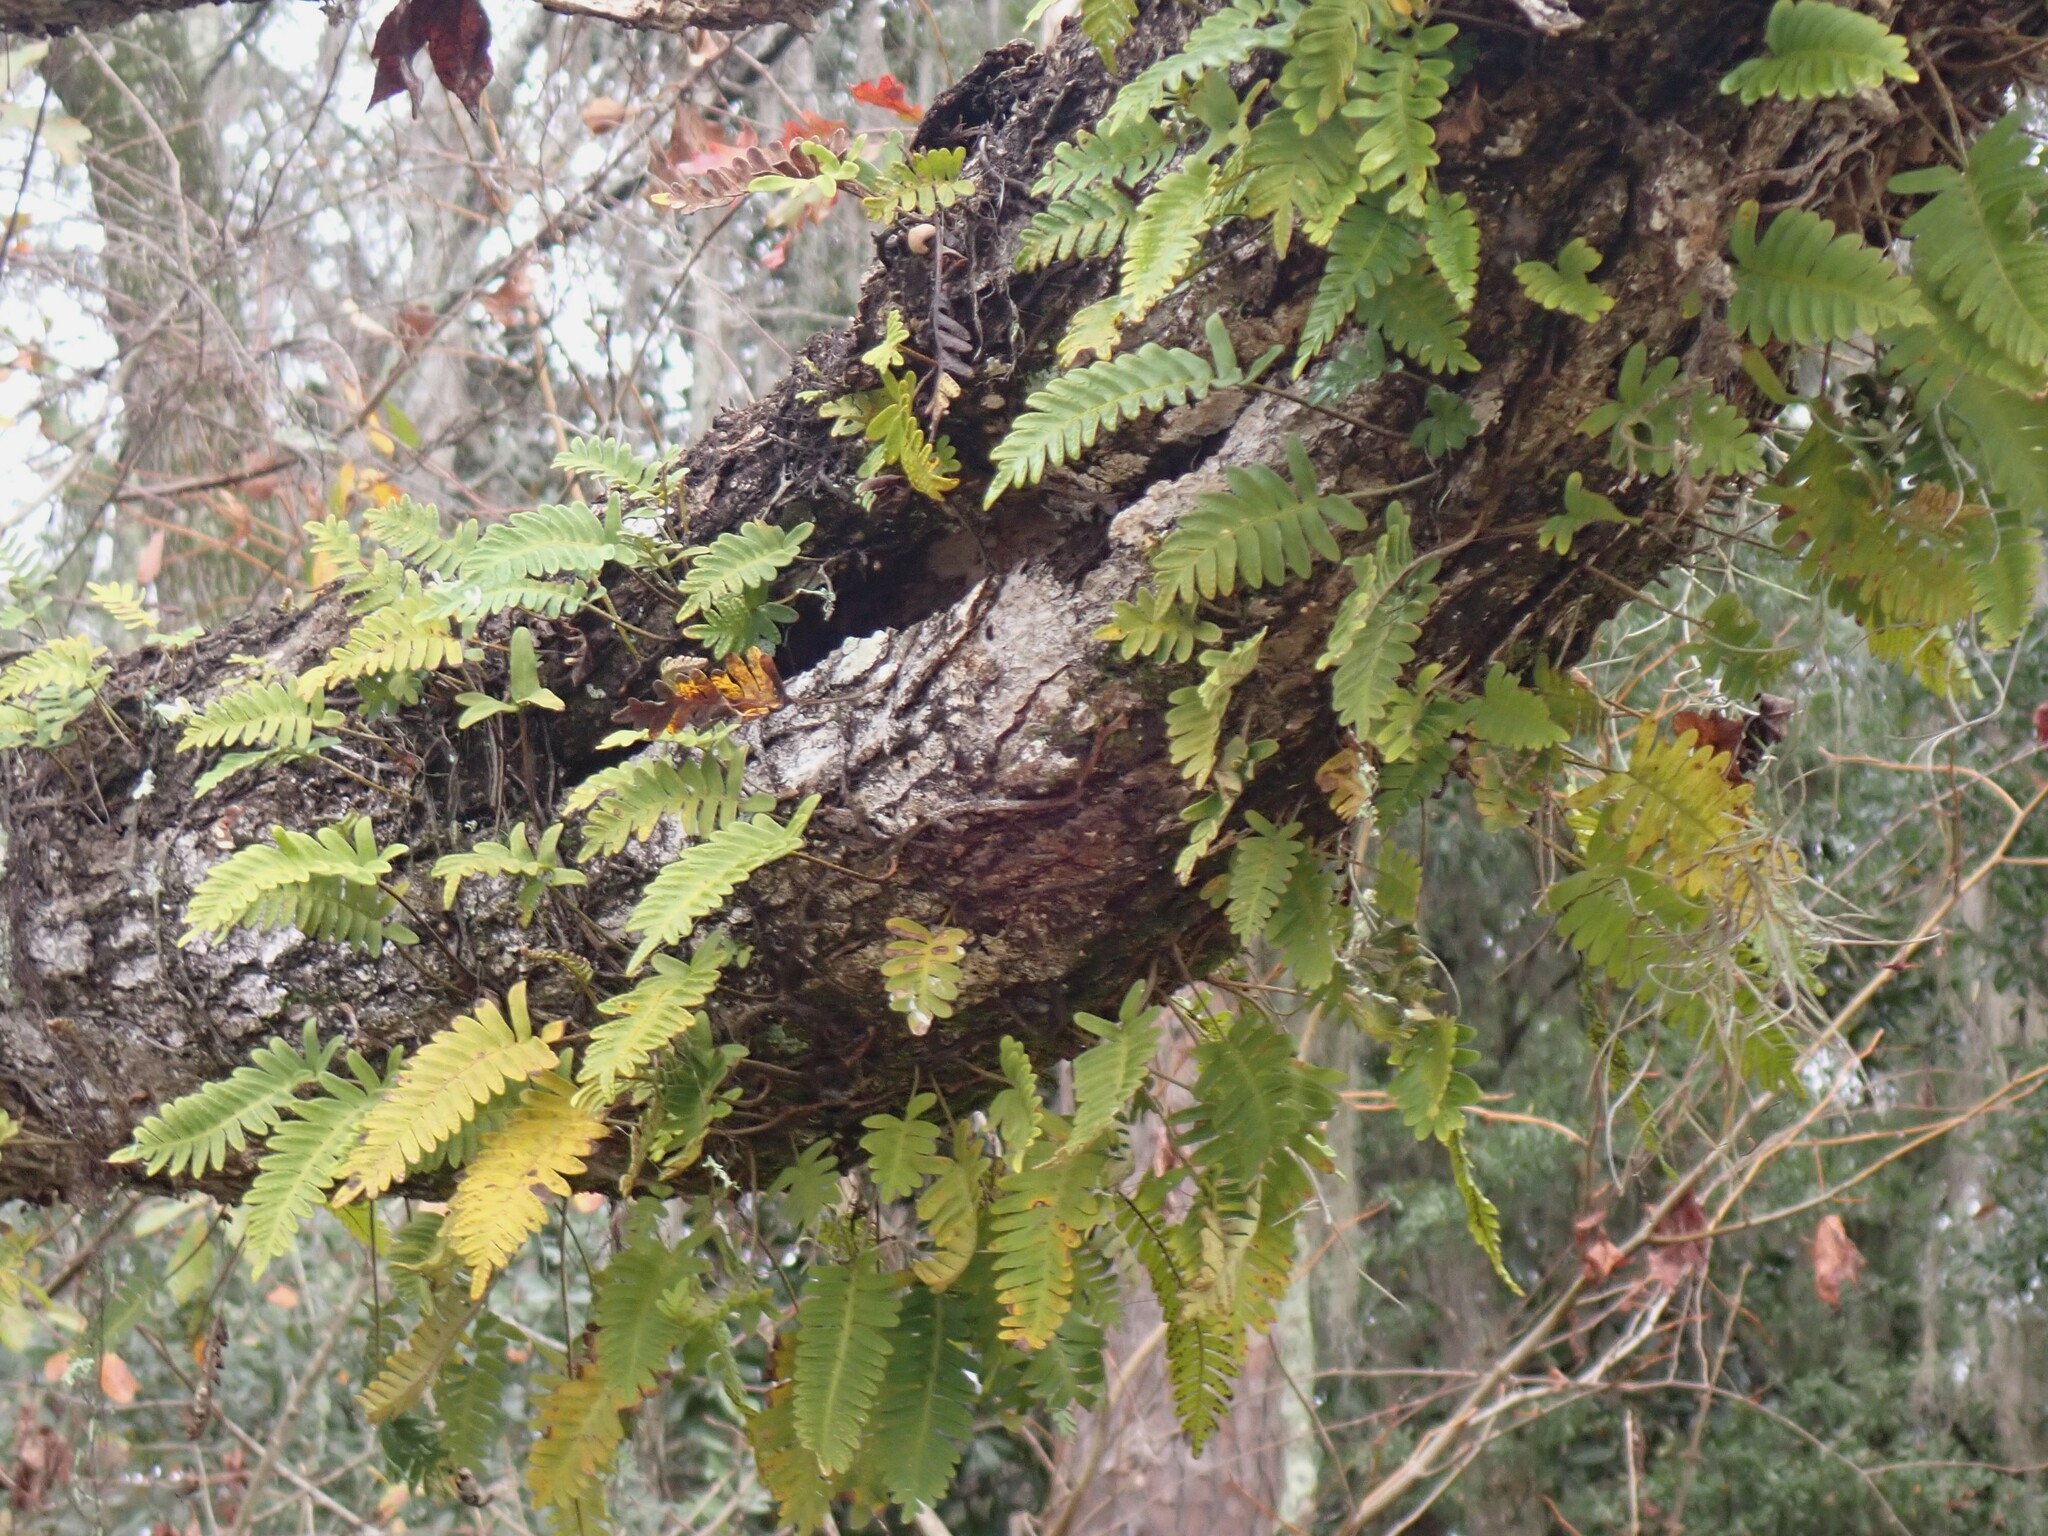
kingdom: Plantae
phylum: Tracheophyta
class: Polypodiopsida
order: Polypodiales
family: Polypodiaceae
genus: Pleopeltis
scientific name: Pleopeltis michauxiana
